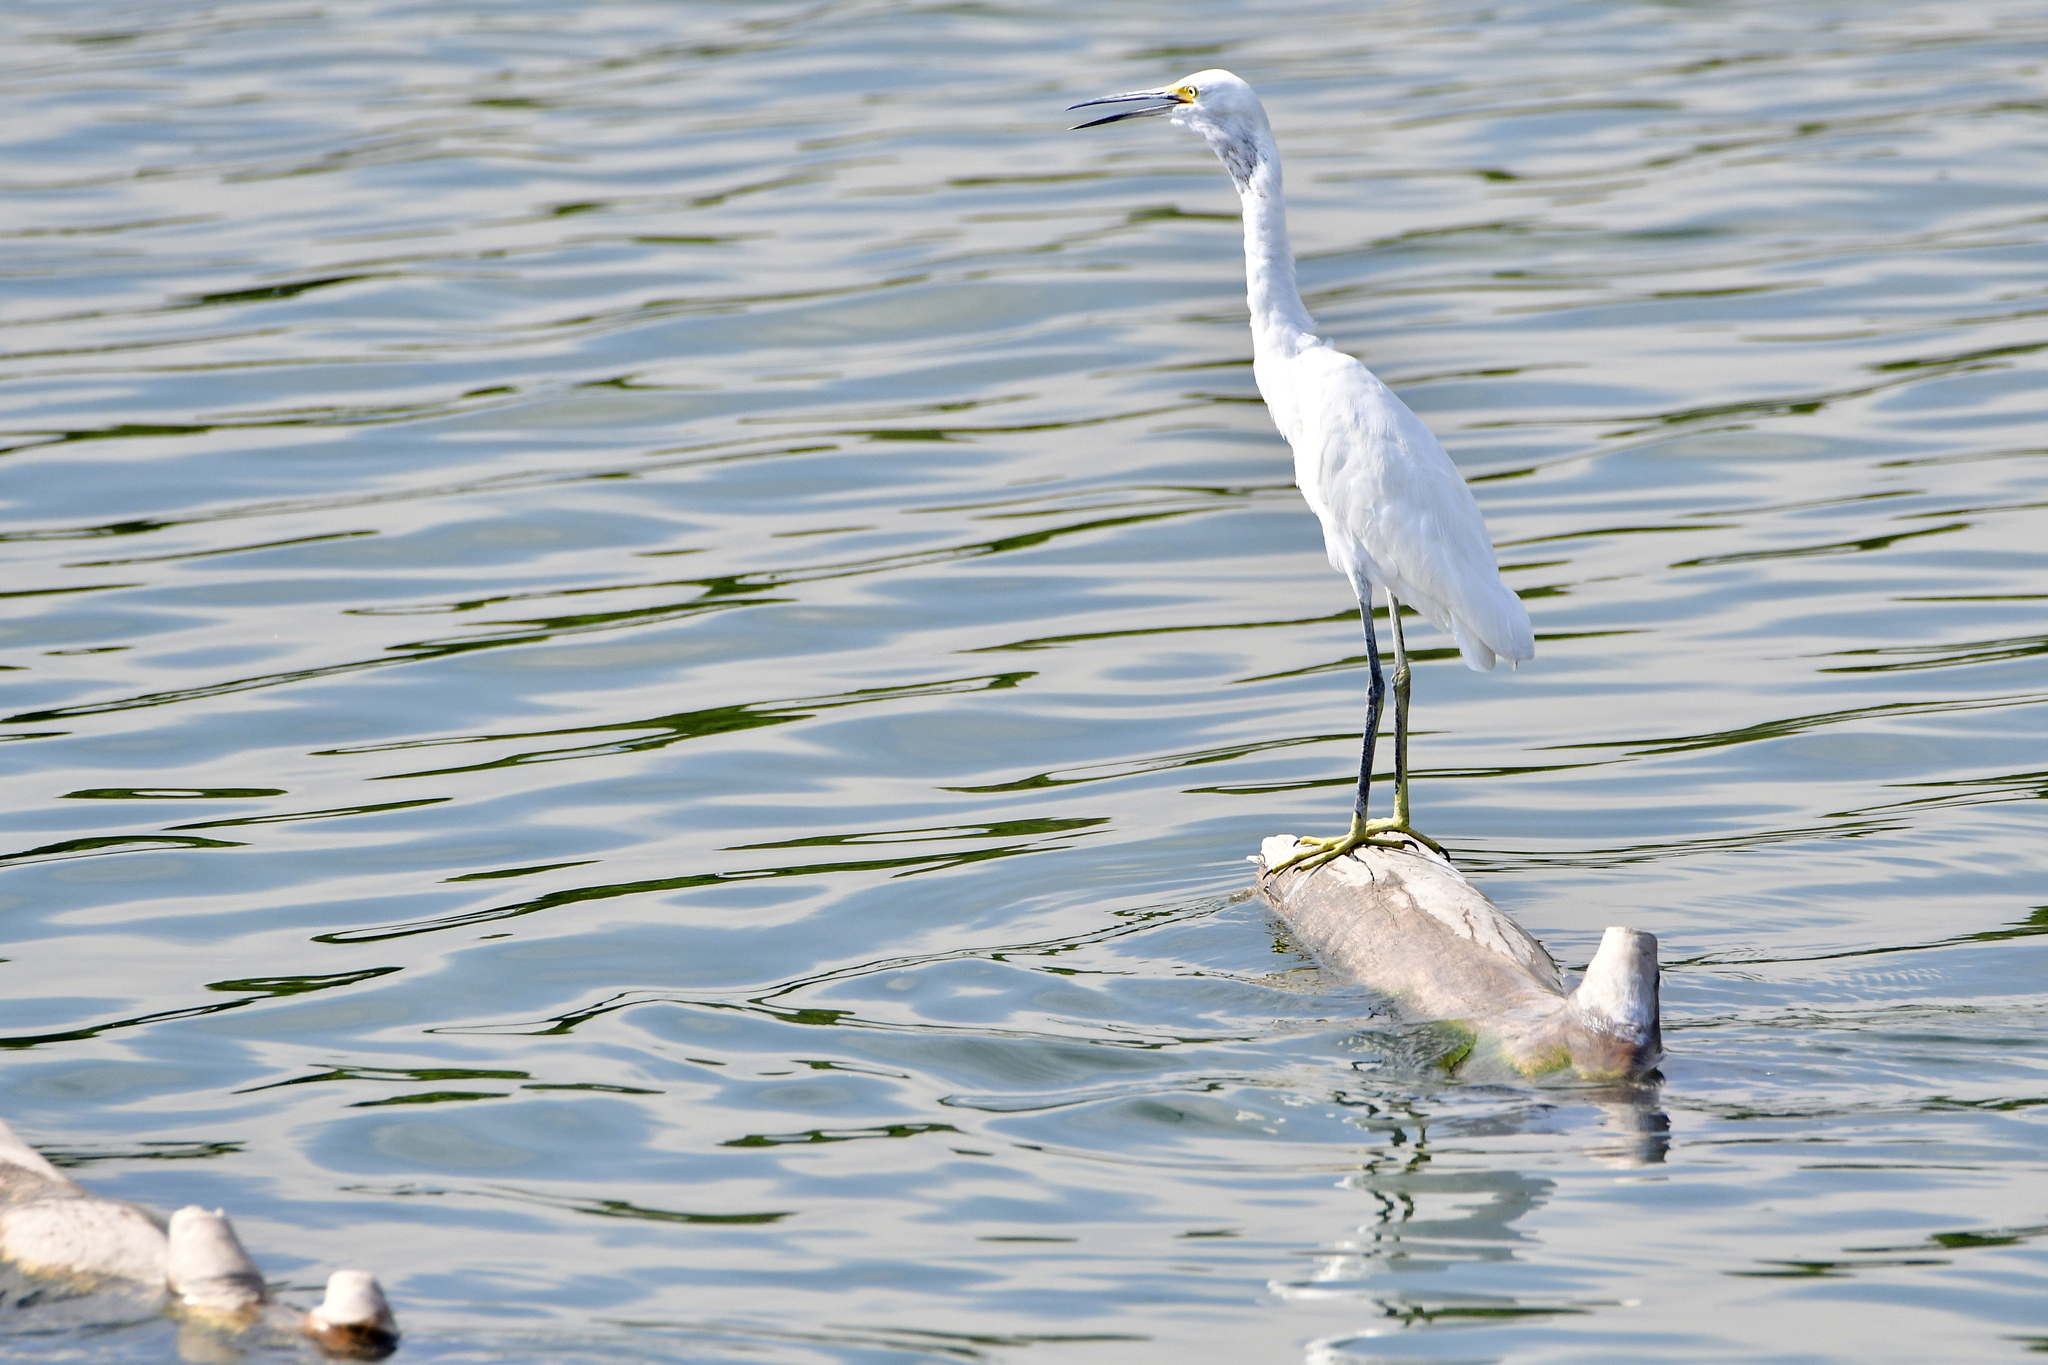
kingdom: Animalia
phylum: Chordata
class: Aves
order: Pelecaniformes
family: Ardeidae
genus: Egretta
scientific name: Egretta thula
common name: Snowy egret
